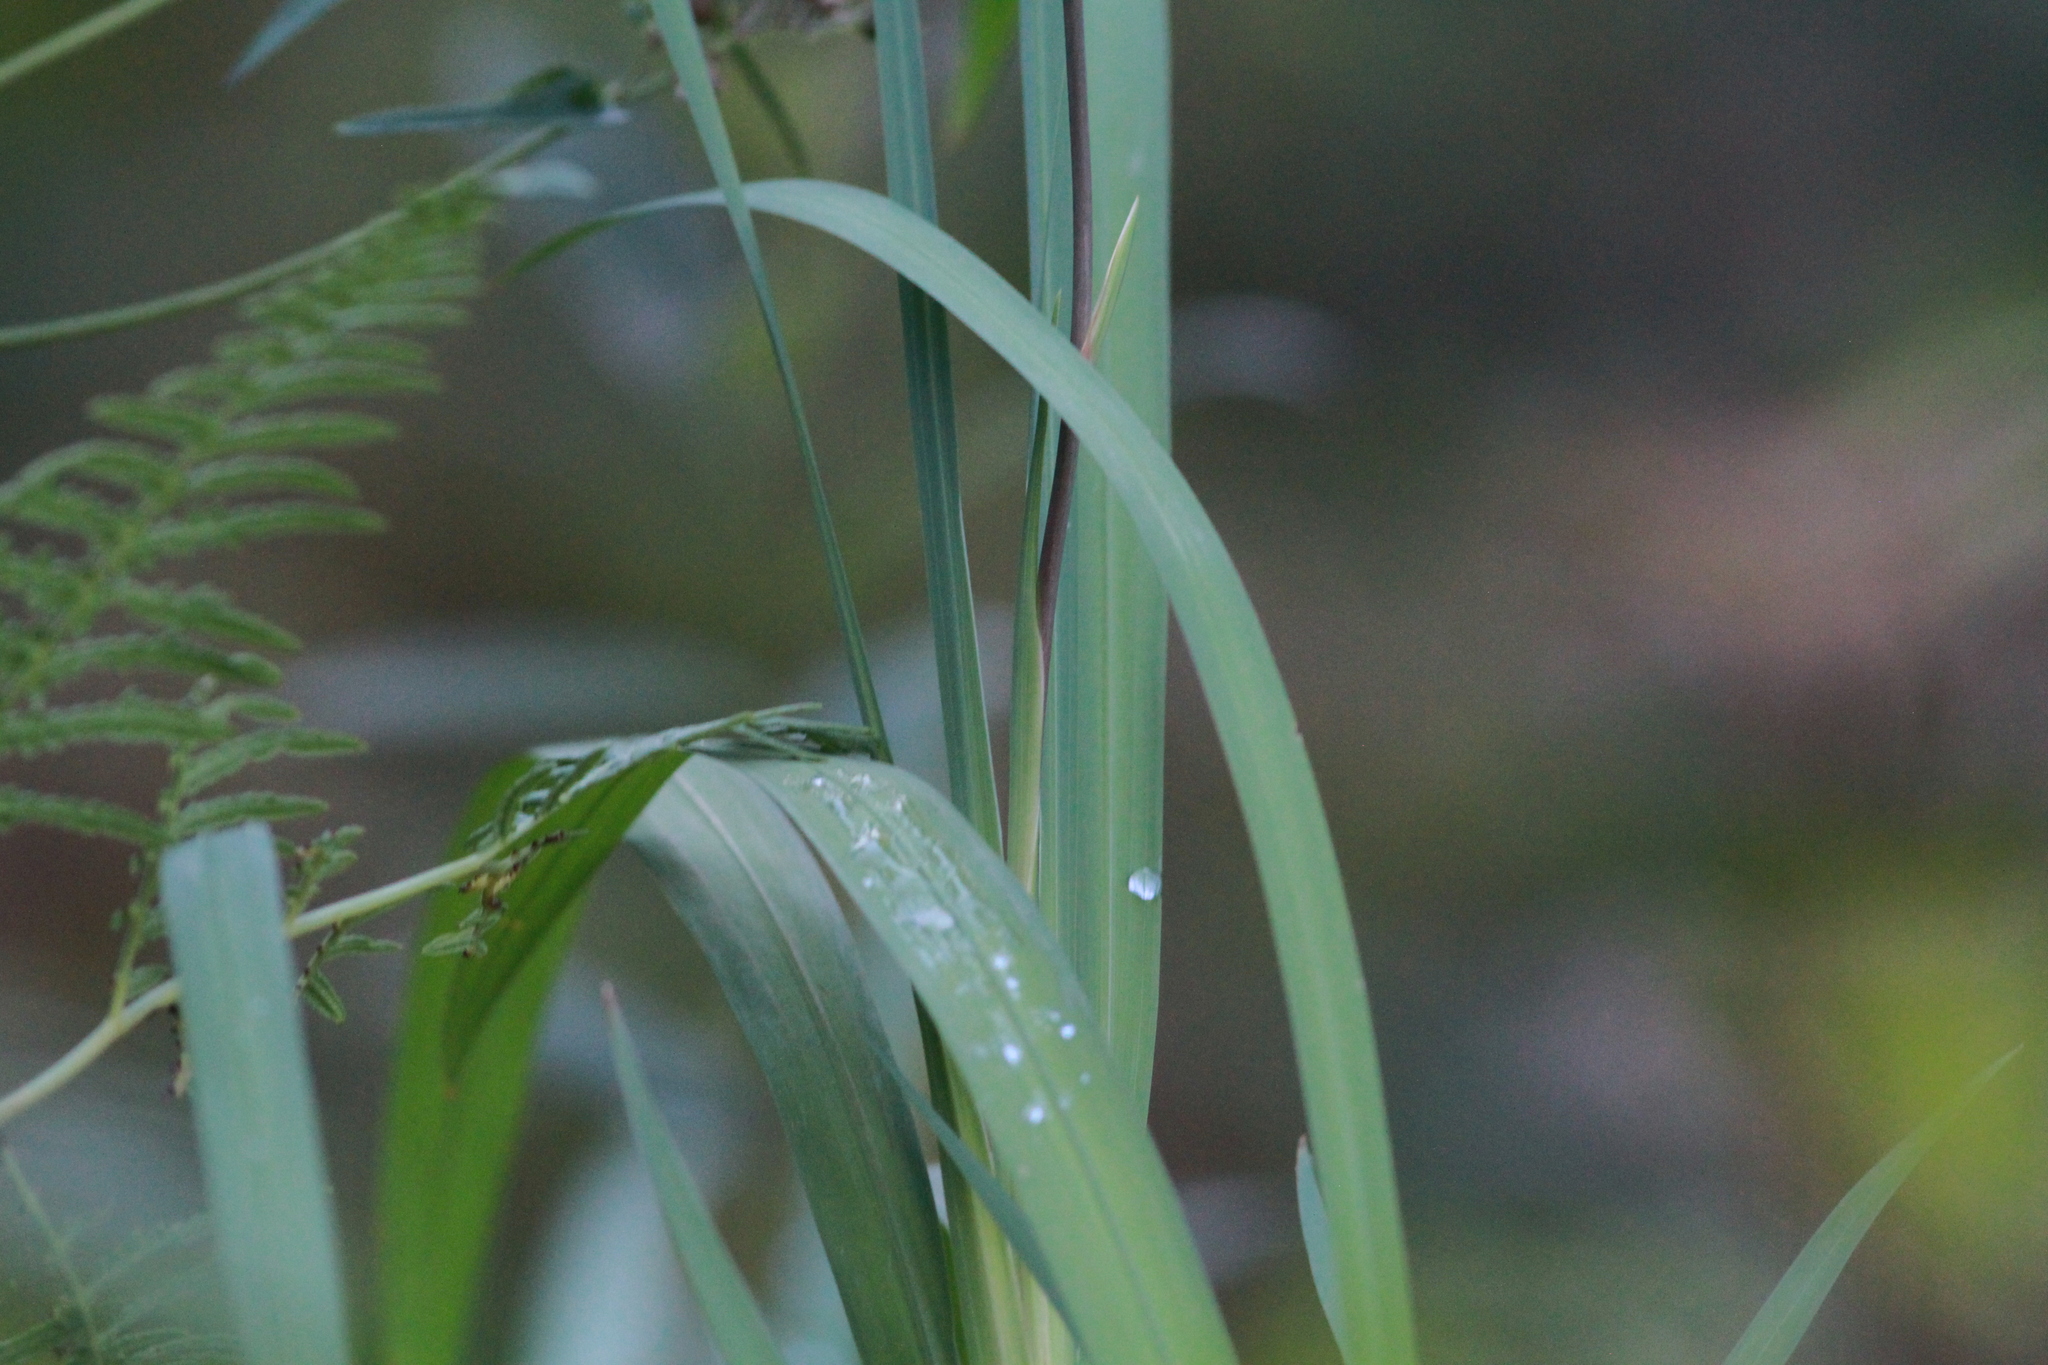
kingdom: Plantae
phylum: Tracheophyta
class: Liliopsida
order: Asparagales
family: Iridaceae
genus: Crocosmia
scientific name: Crocosmia crocosmiiflora
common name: Montbretia
